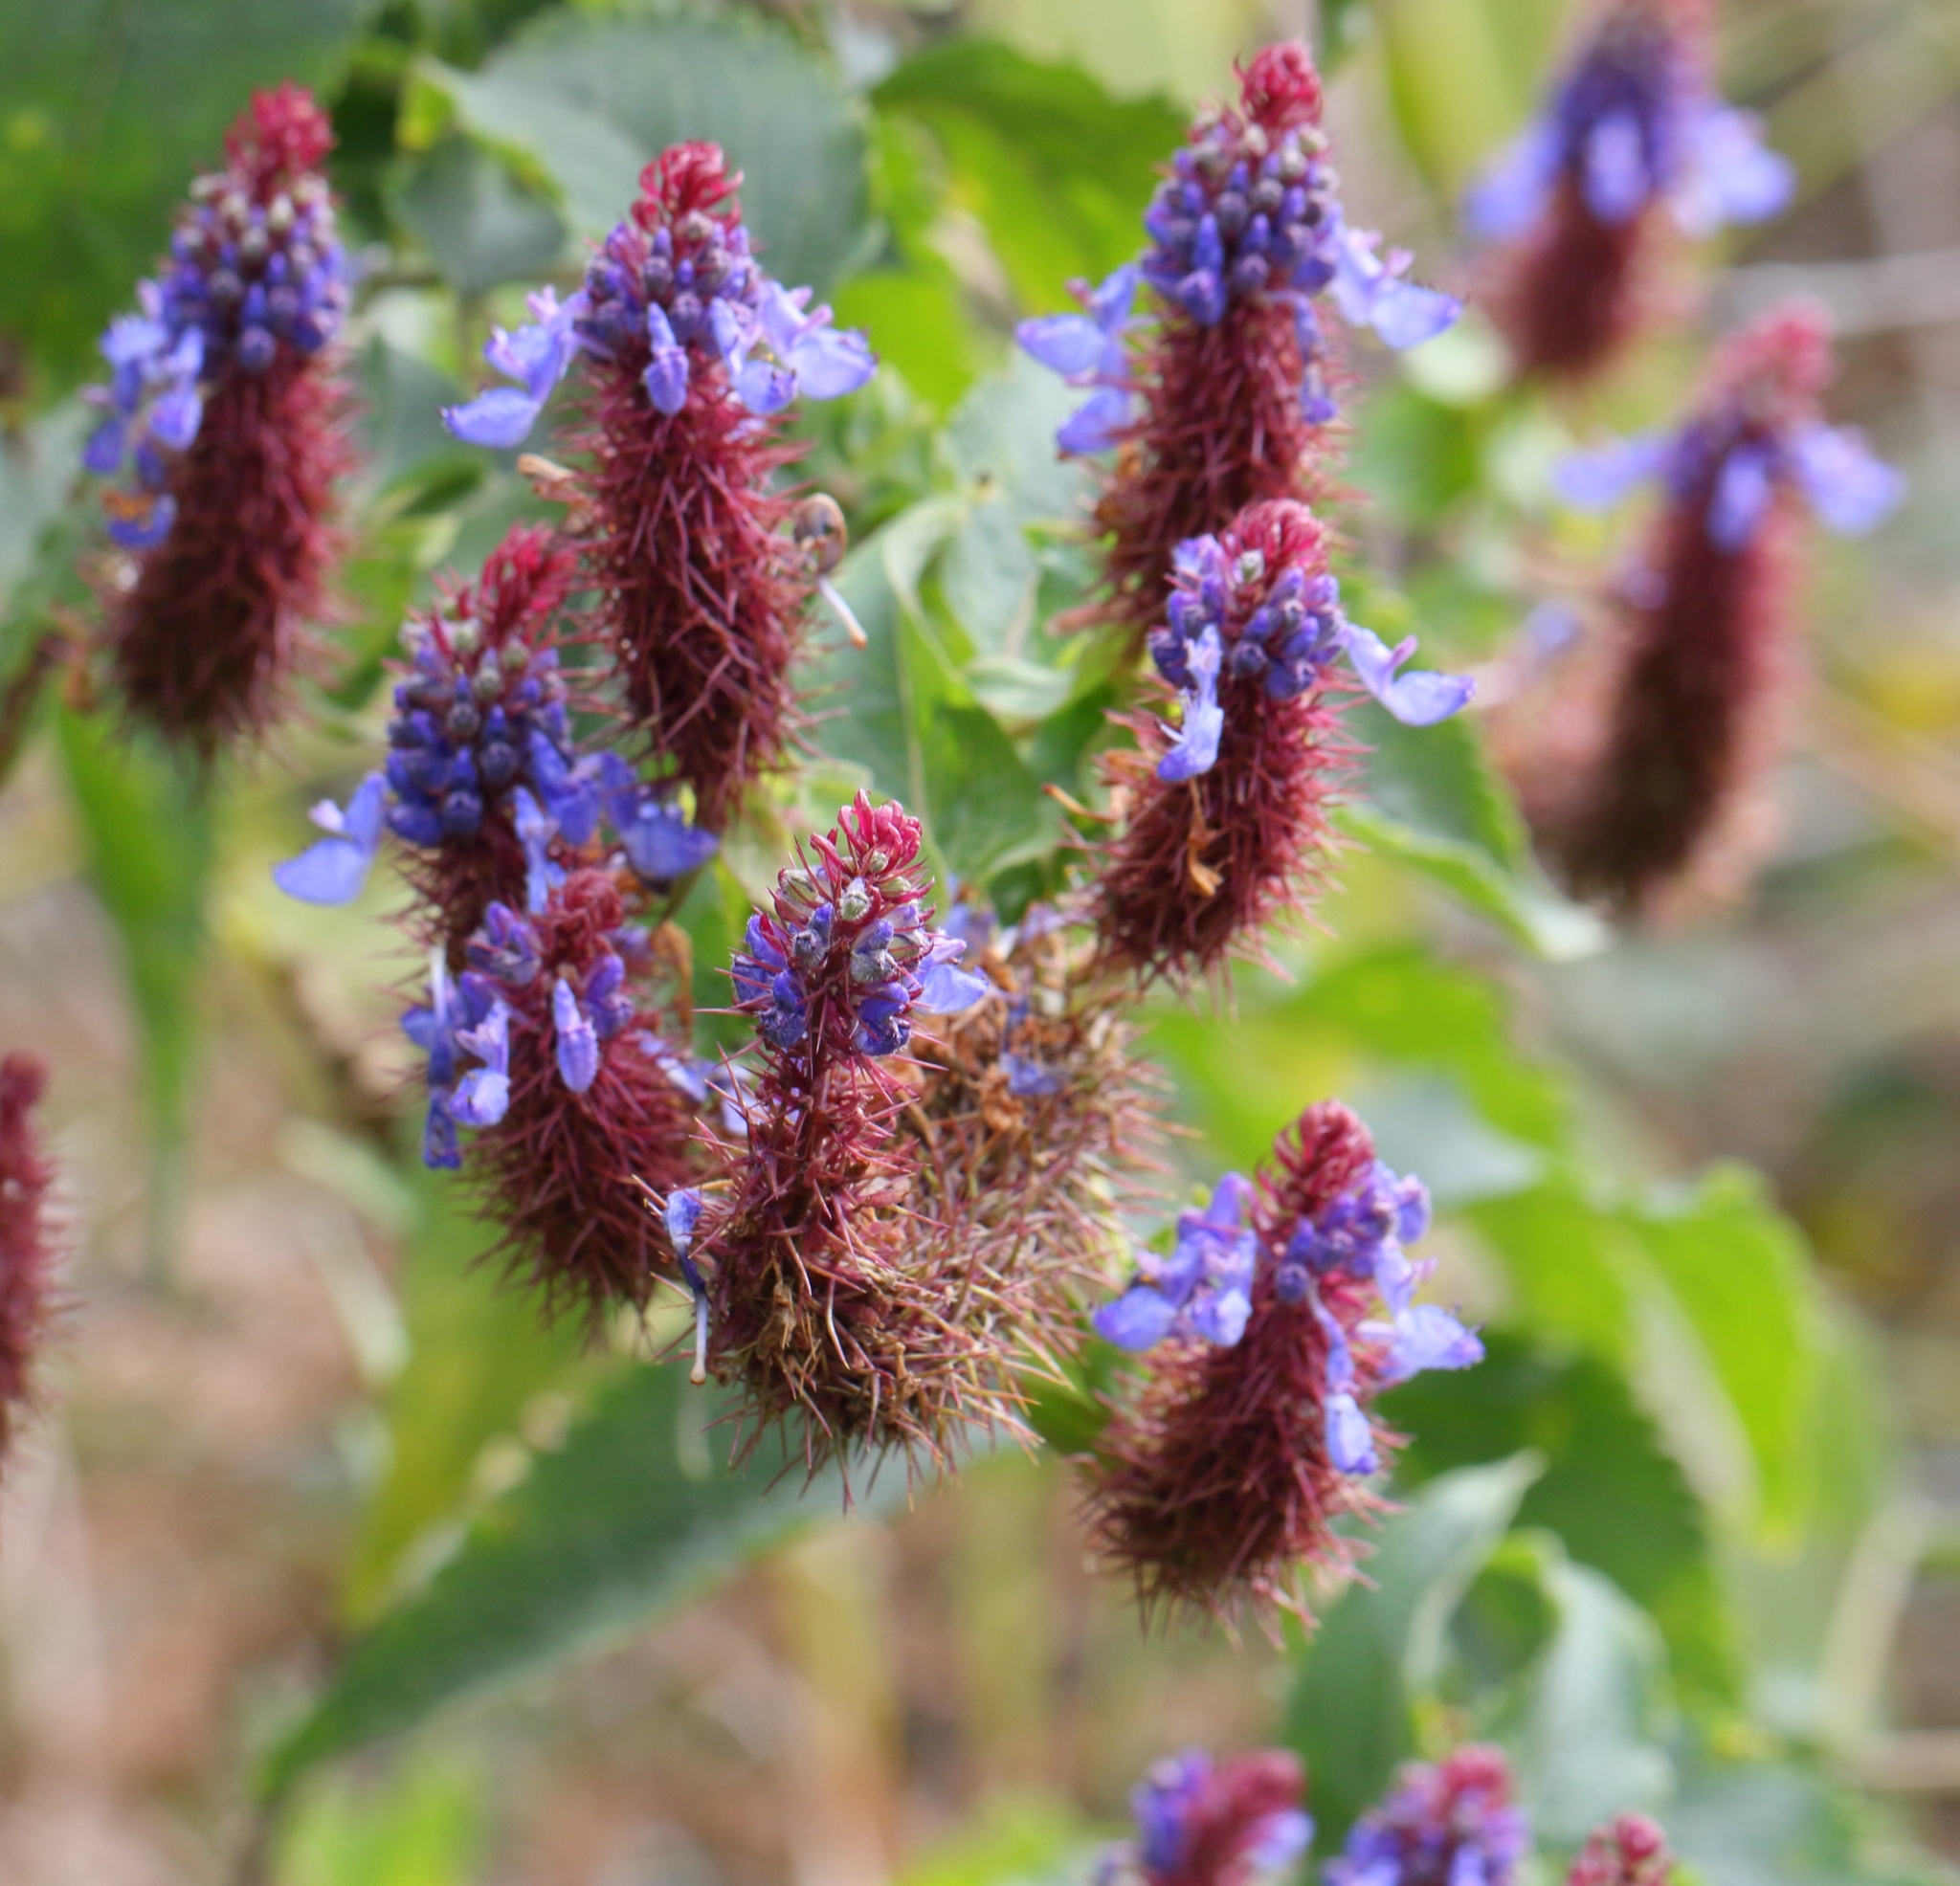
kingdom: Plantae
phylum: Tracheophyta
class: Magnoliopsida
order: Lamiales
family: Lamiaceae
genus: Coleus
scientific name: Coleus livingstonei
